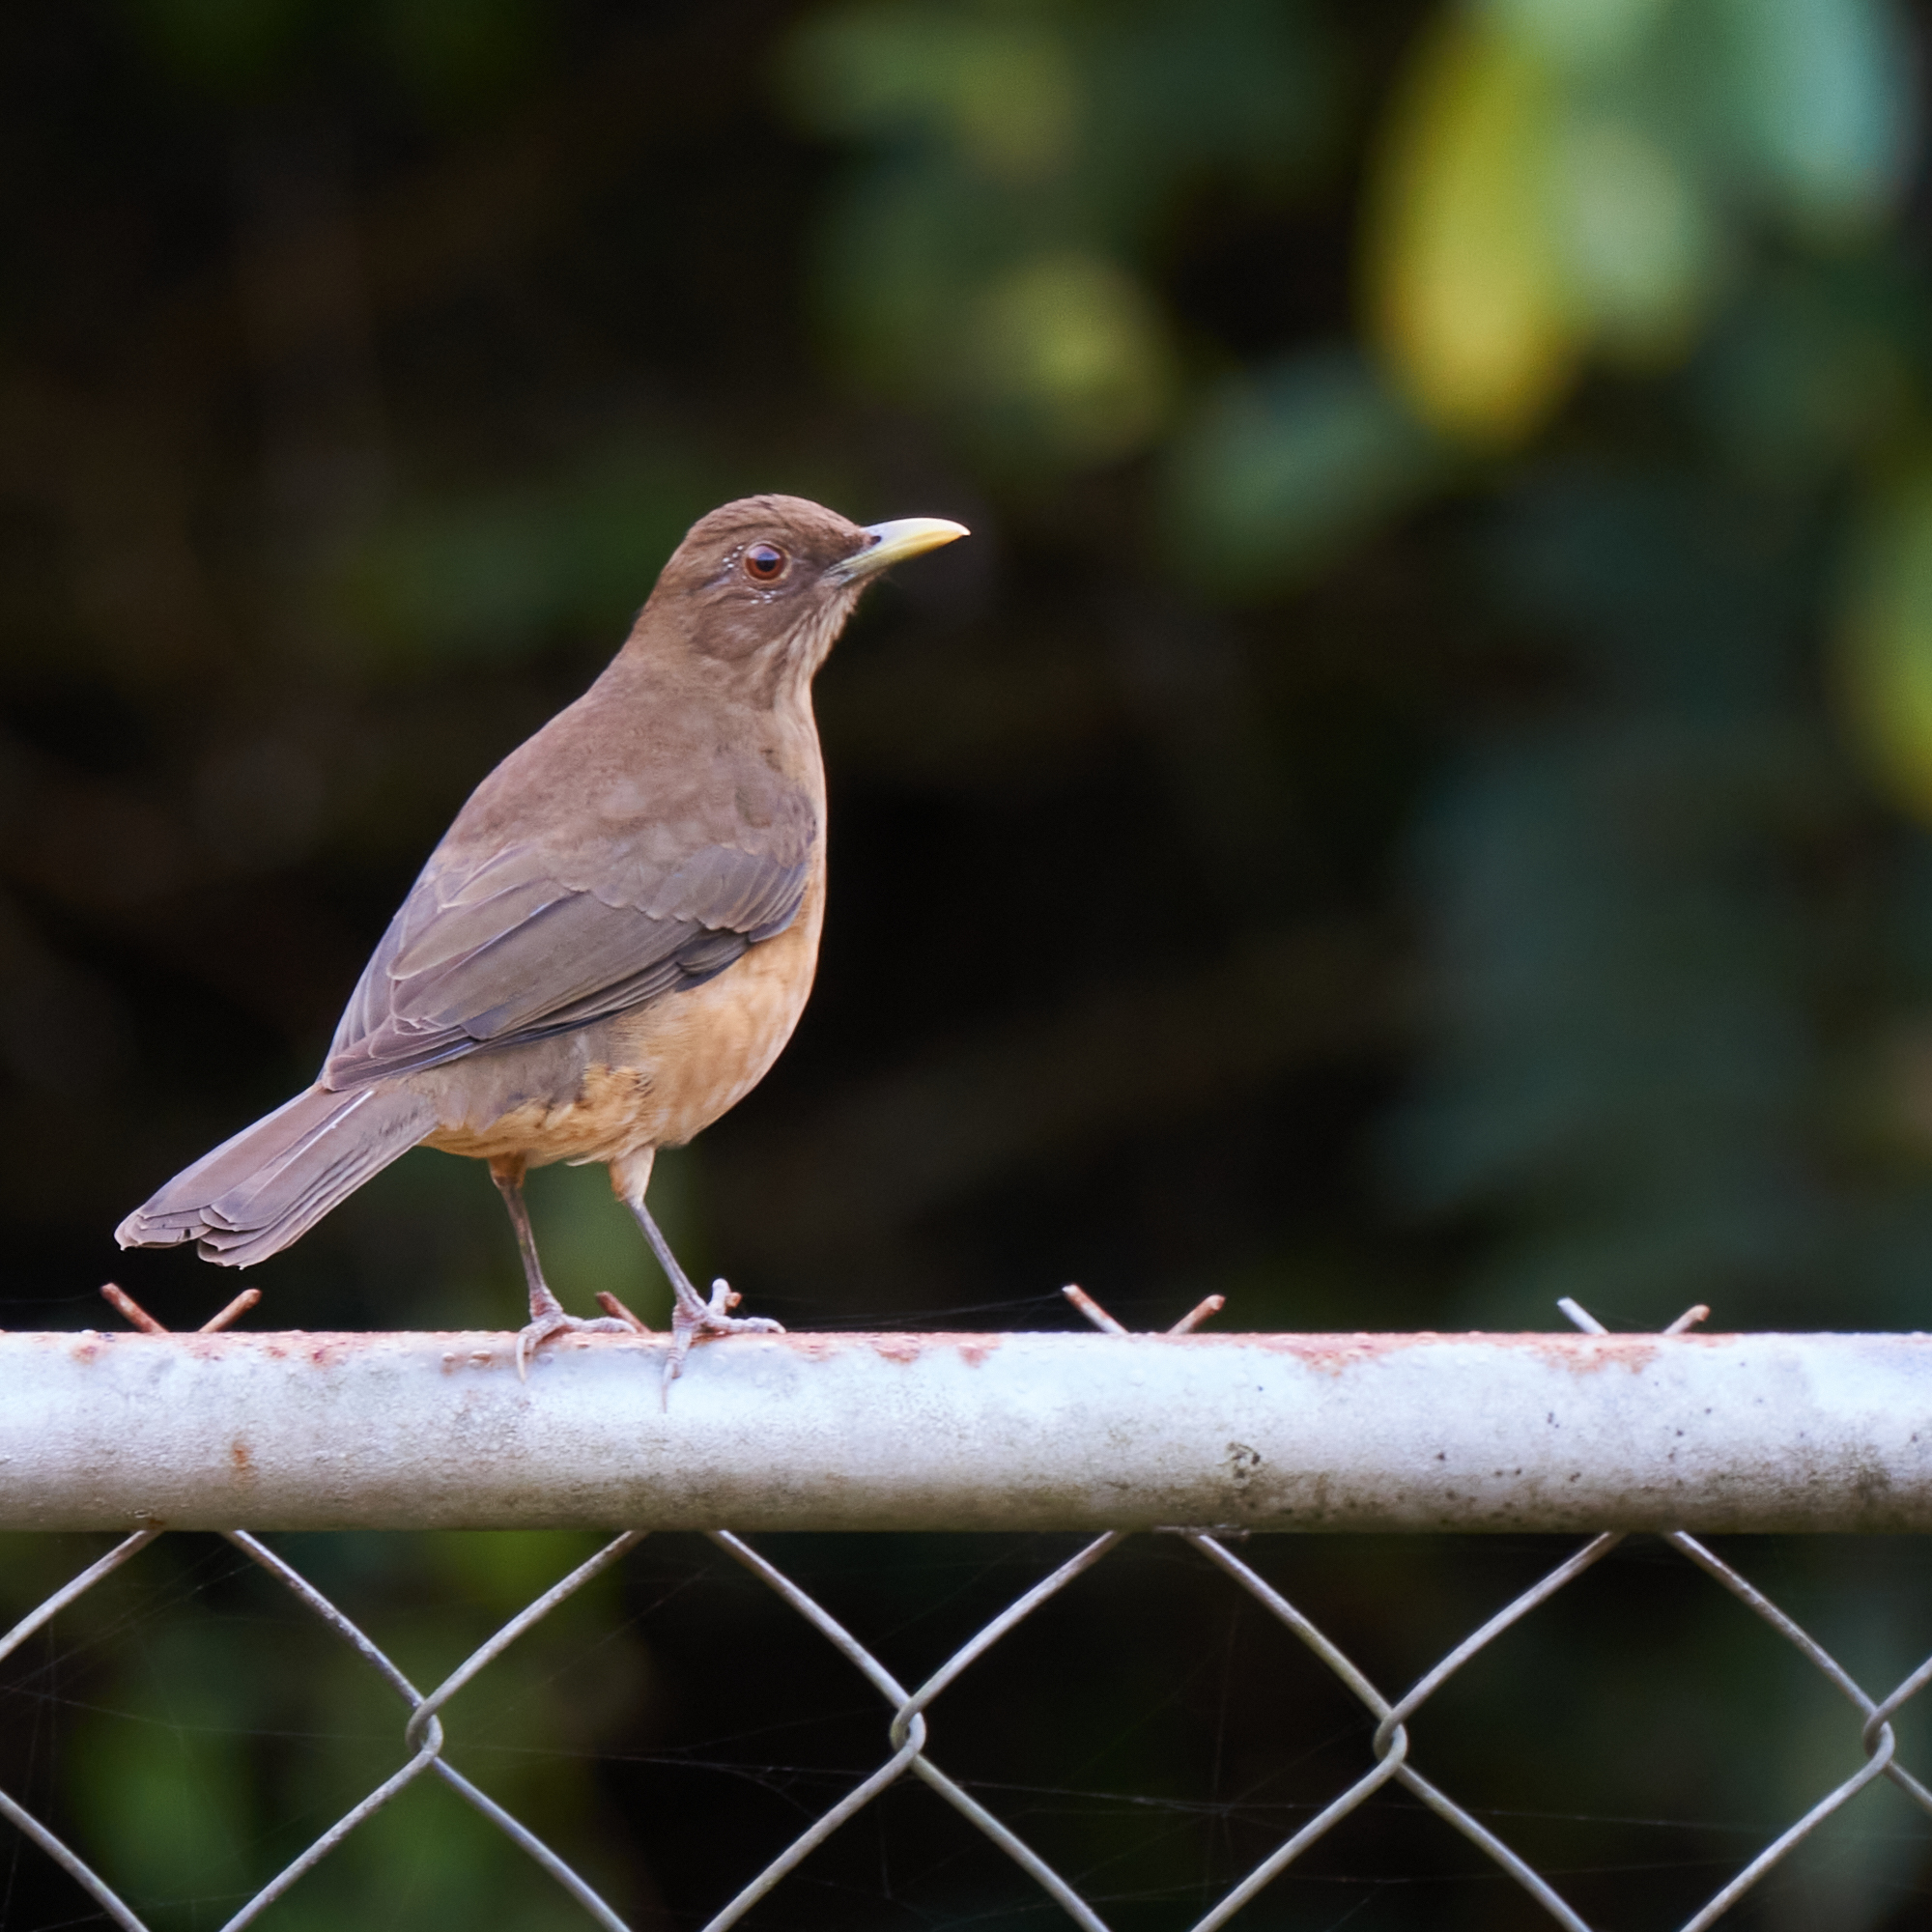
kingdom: Animalia
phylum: Chordata
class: Aves
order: Passeriformes
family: Turdidae
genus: Turdus
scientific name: Turdus grayi
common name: Clay-colored thrush
